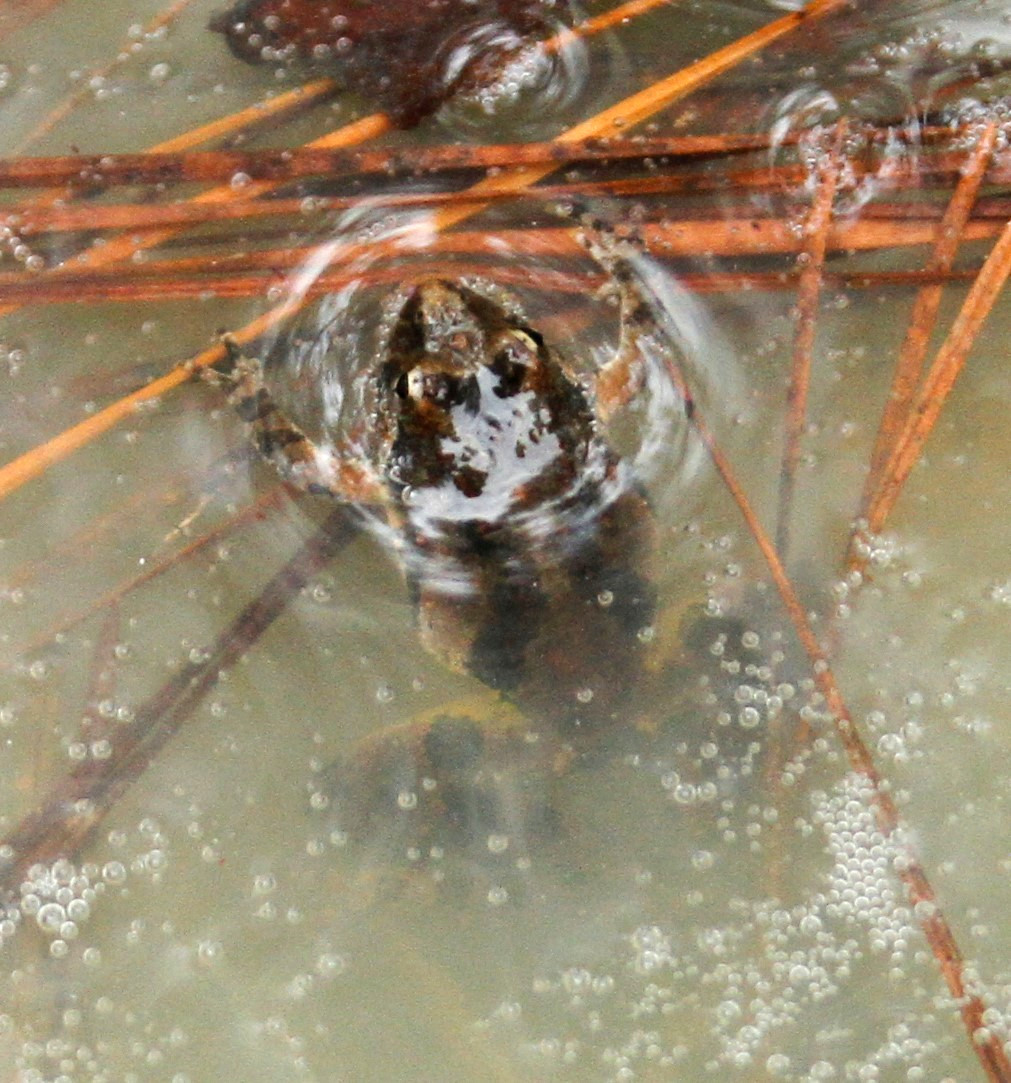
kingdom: Animalia
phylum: Chordata
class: Amphibia
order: Anura
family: Hylidae
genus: Acris
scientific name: Acris crepitans
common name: Northern cricket frog
